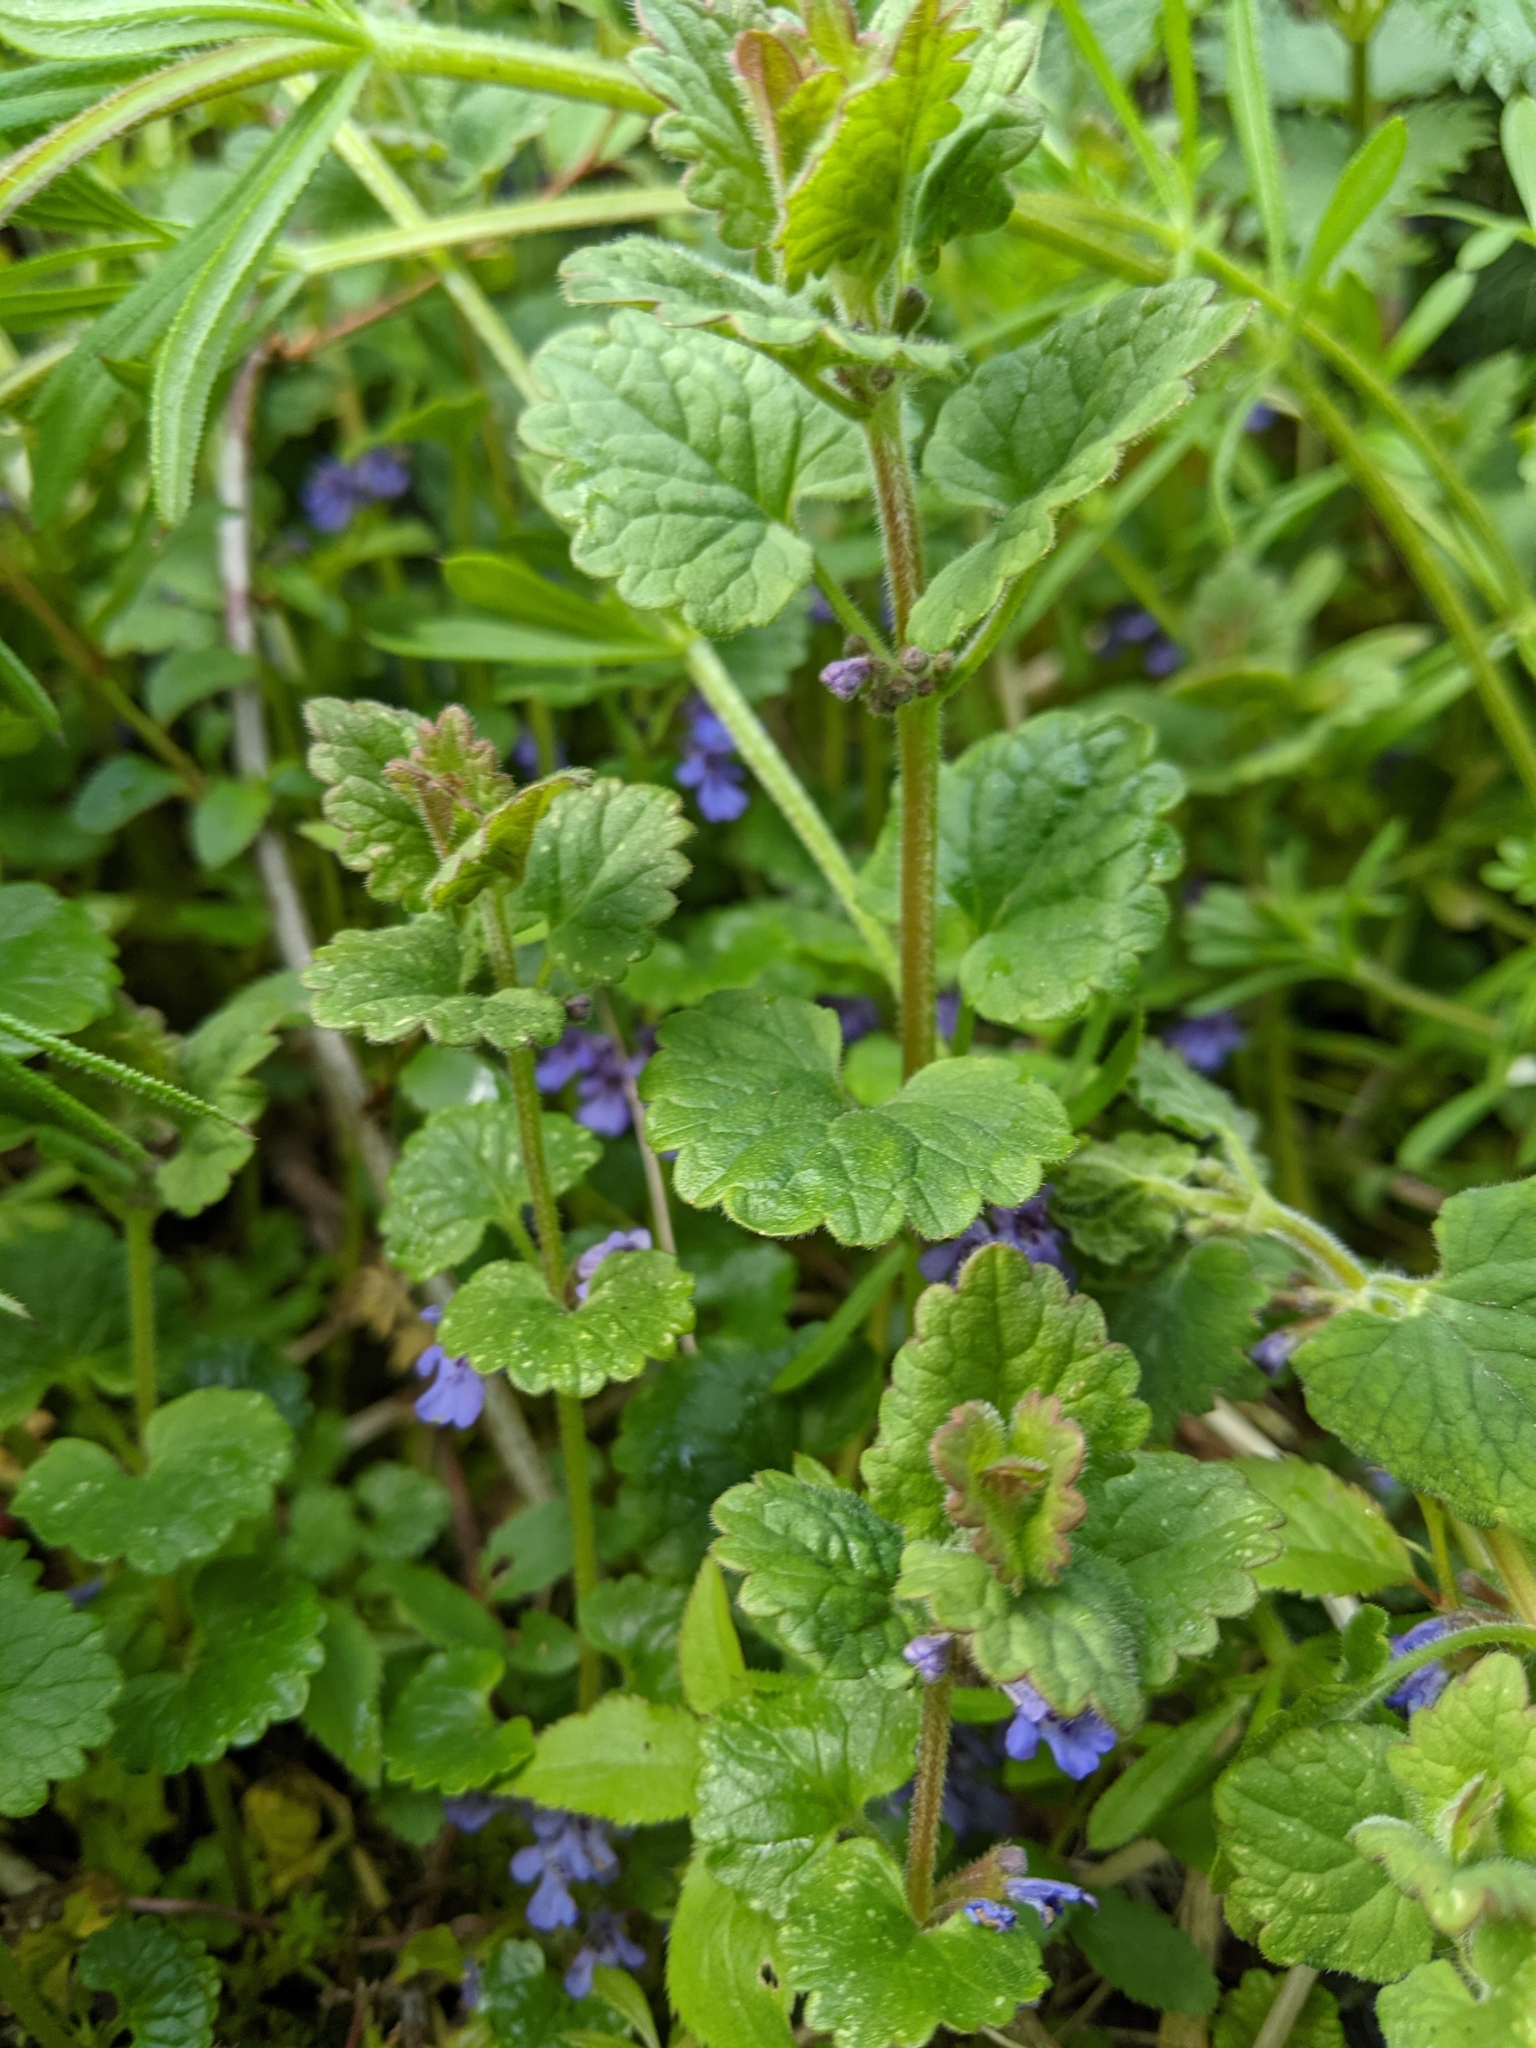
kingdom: Plantae
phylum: Tracheophyta
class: Magnoliopsida
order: Lamiales
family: Lamiaceae
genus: Glechoma
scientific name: Glechoma hederacea
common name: Ground ivy
